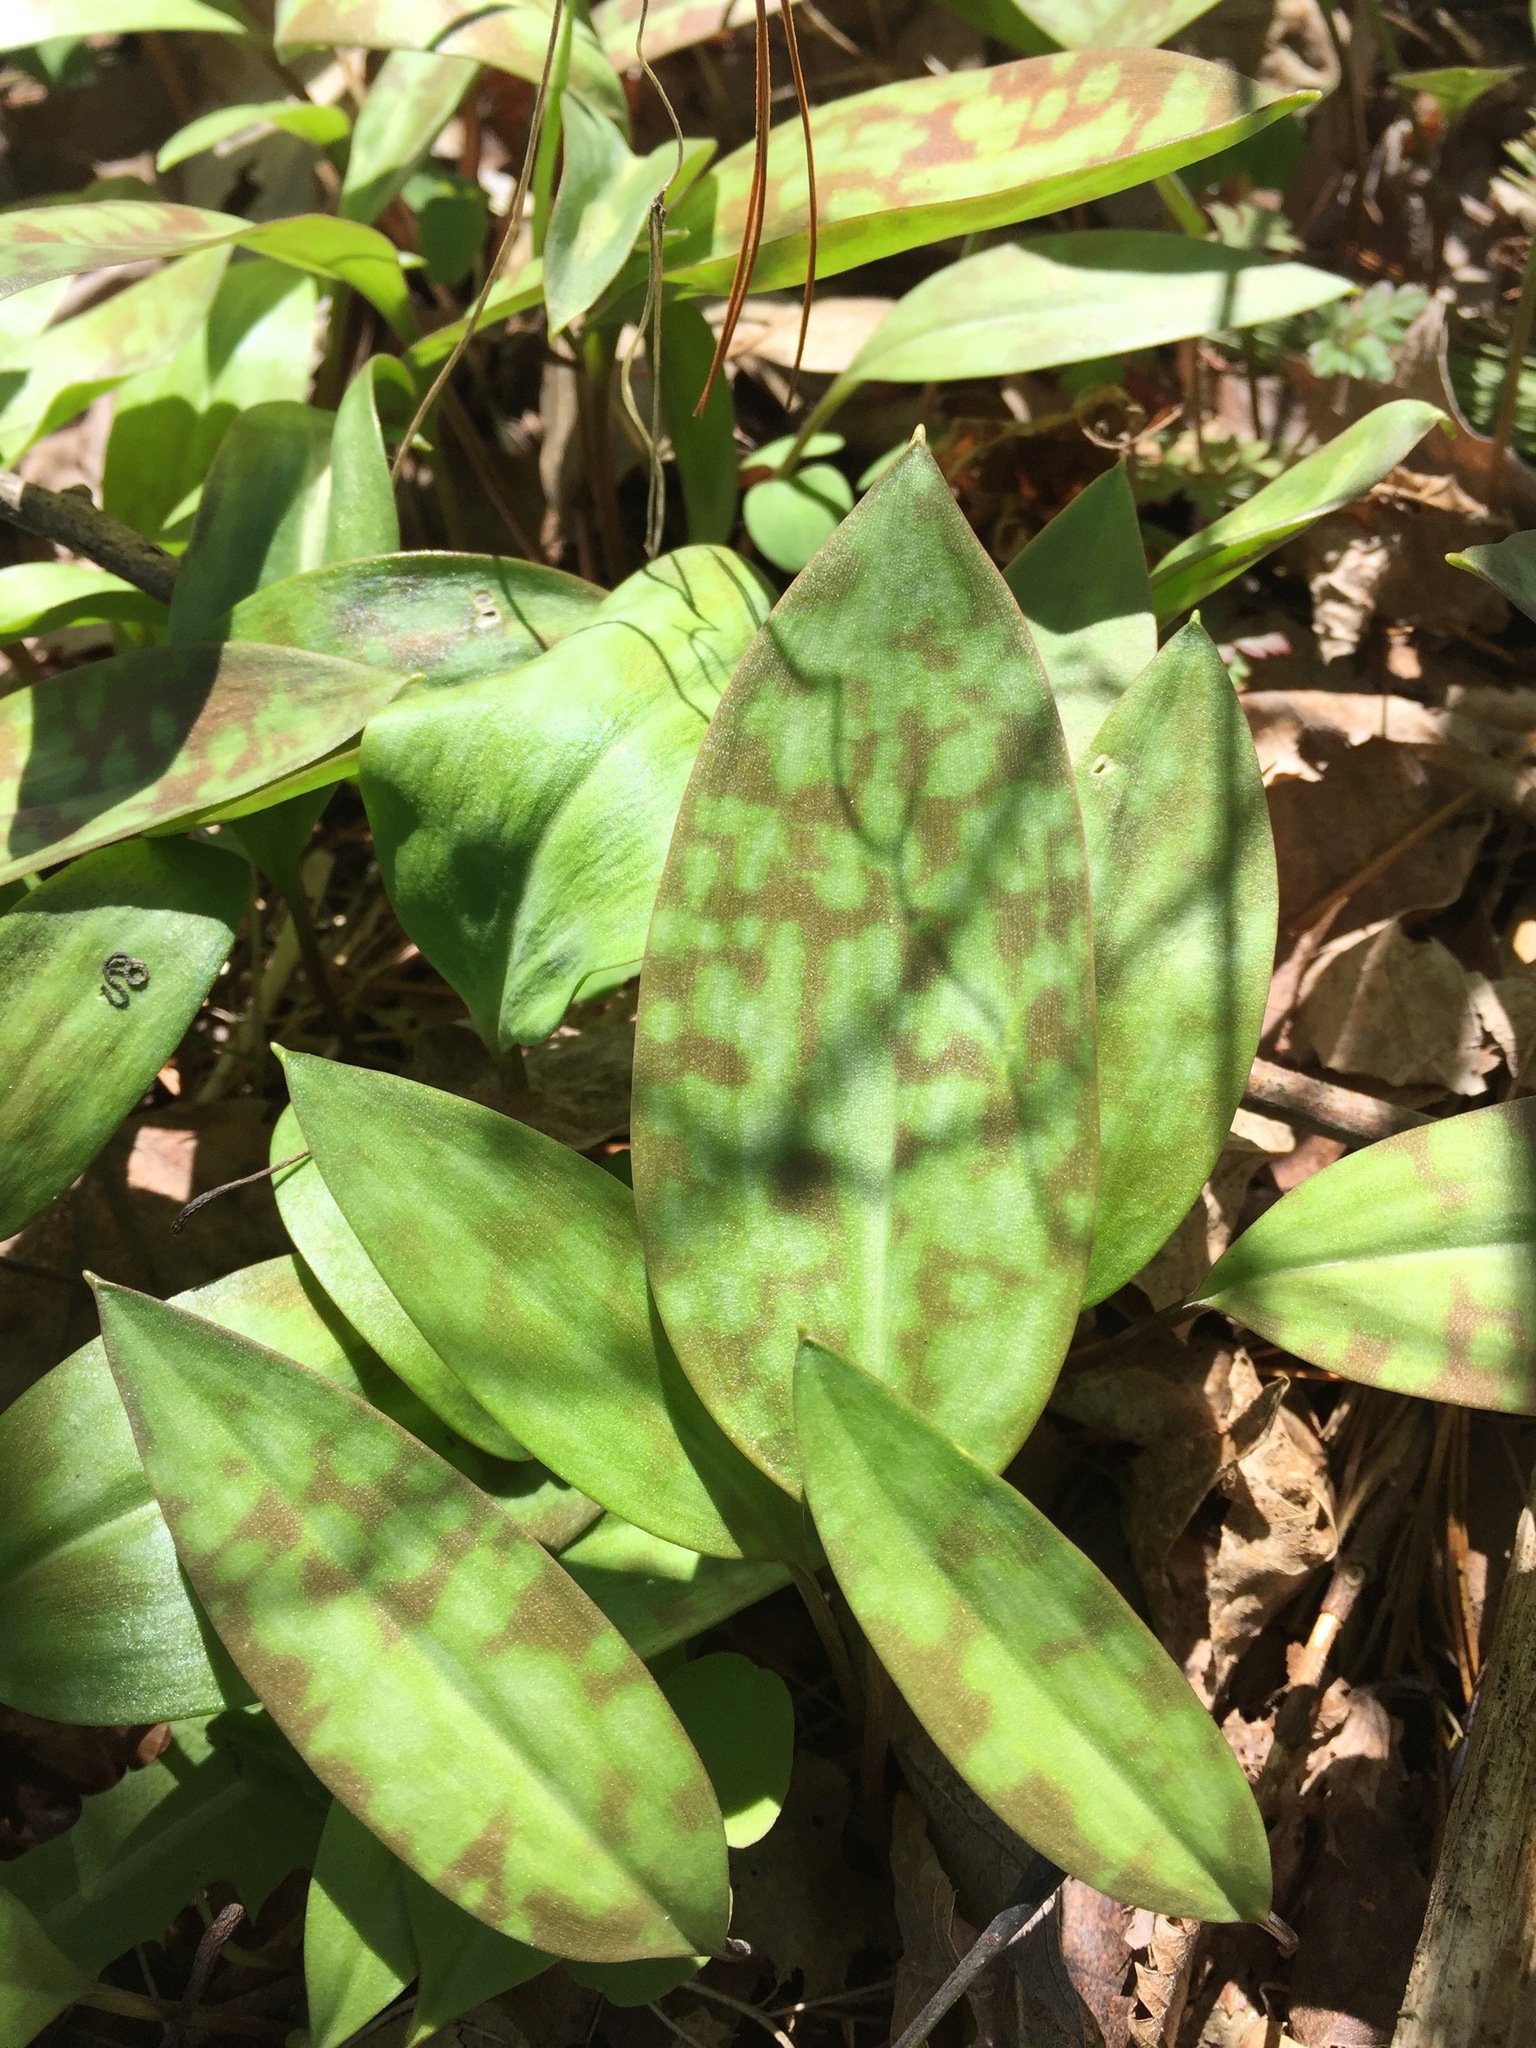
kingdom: Plantae
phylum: Tracheophyta
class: Liliopsida
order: Liliales
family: Liliaceae
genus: Erythronium
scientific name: Erythronium americanum
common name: Yellow adder's-tongue
